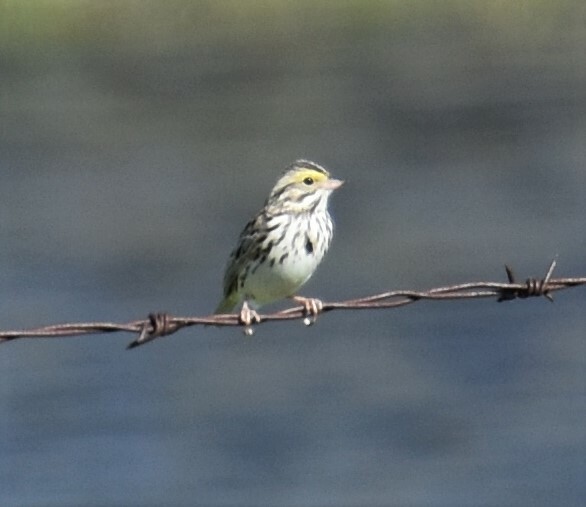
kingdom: Animalia
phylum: Chordata
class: Aves
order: Passeriformes
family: Passerellidae
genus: Passerculus
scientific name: Passerculus sandwichensis
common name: Savannah sparrow
